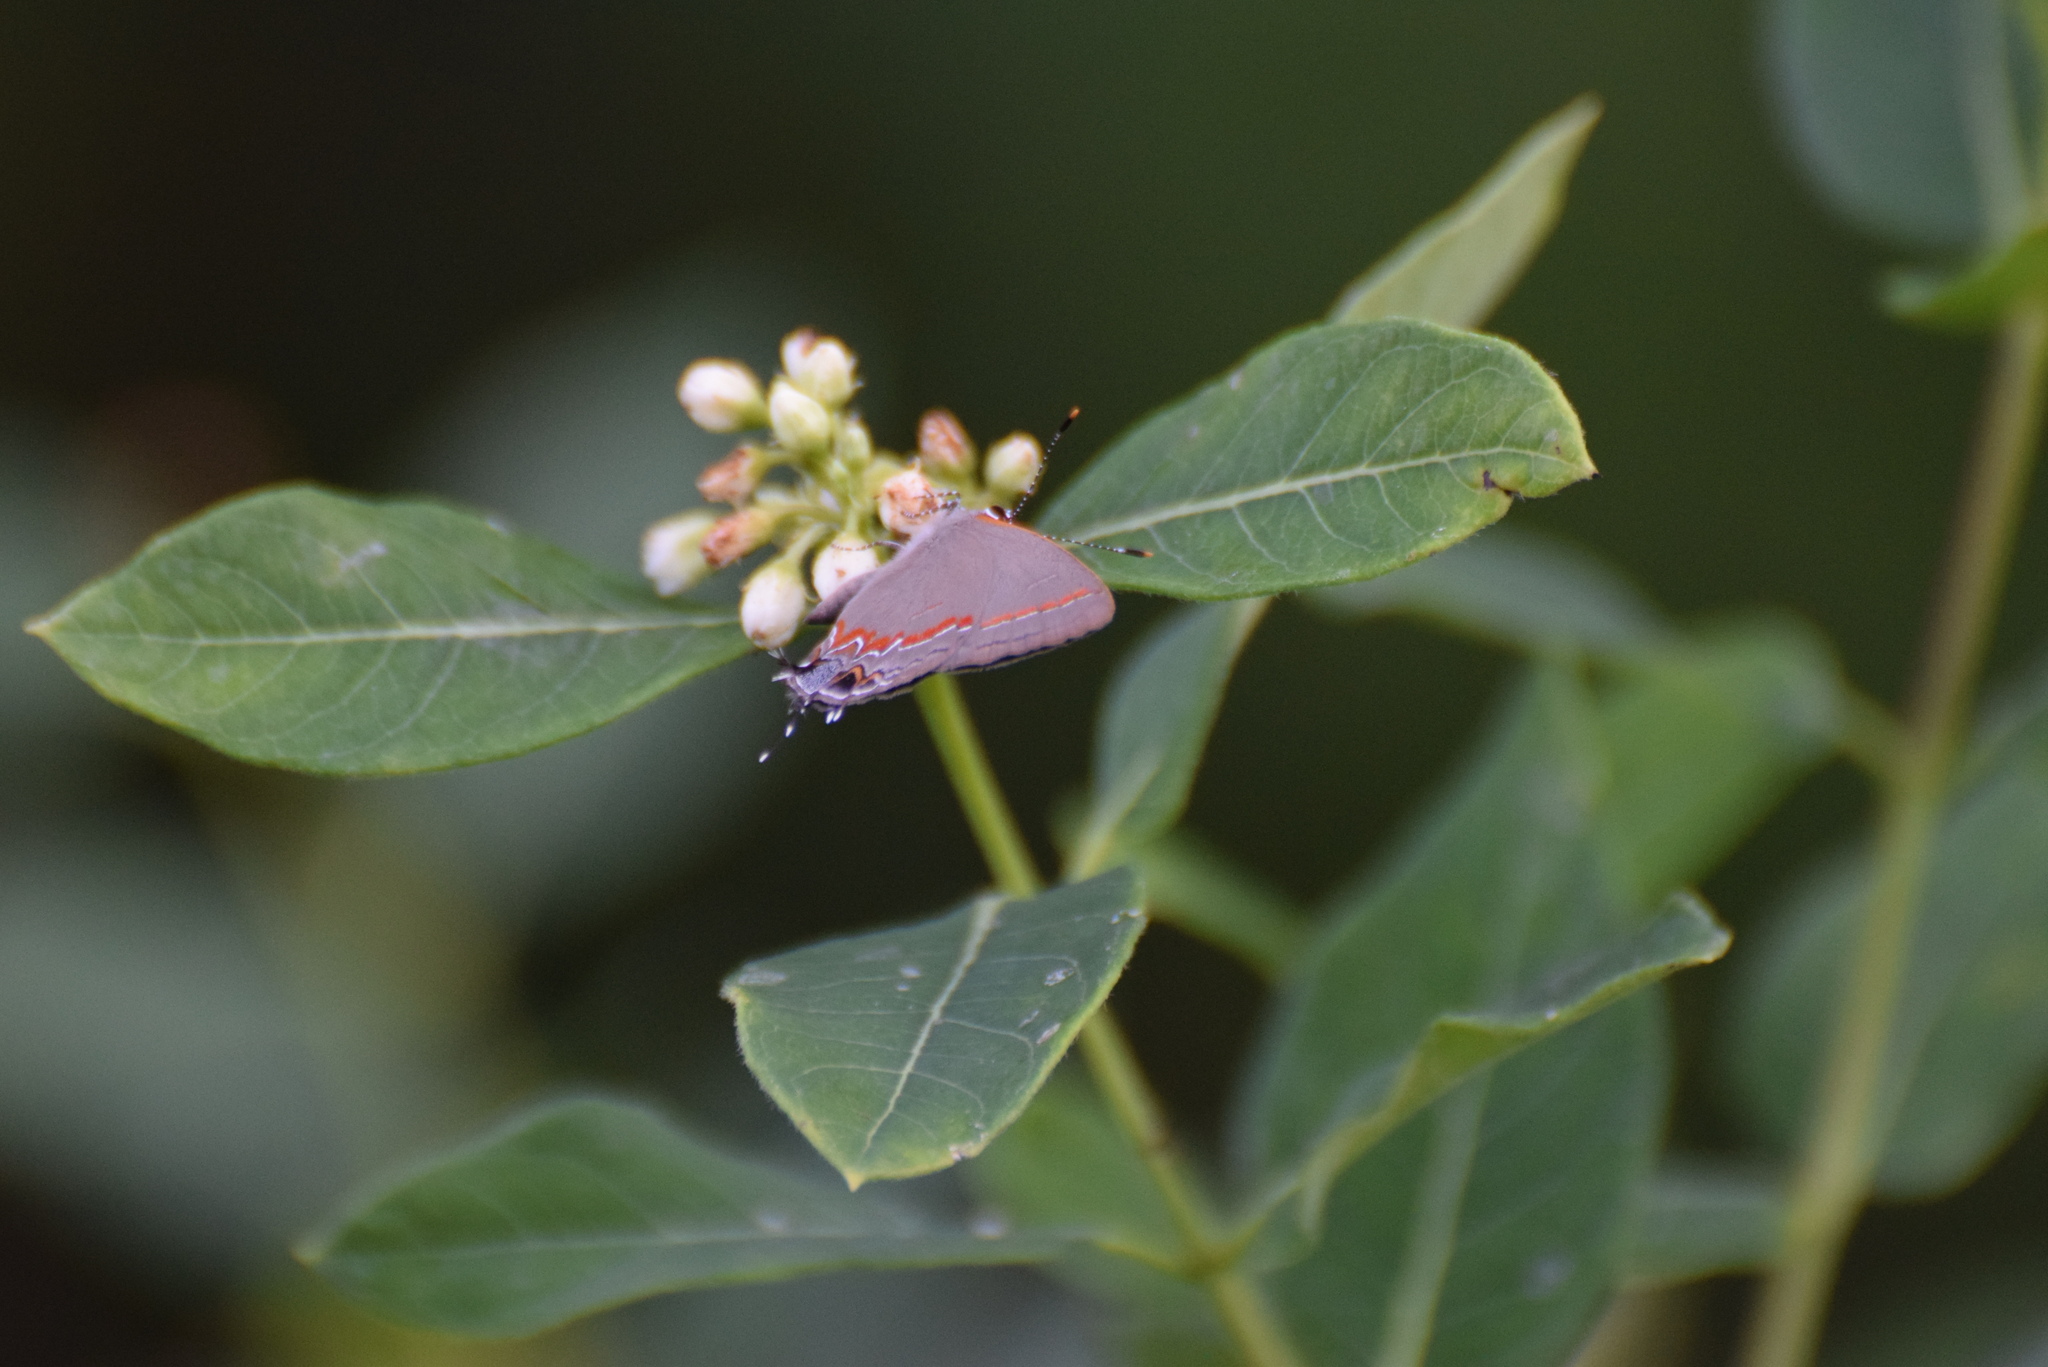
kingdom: Animalia
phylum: Arthropoda
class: Insecta
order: Lepidoptera
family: Lycaenidae
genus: Calycopis
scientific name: Calycopis cecrops
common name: Red-banded hairstreak
